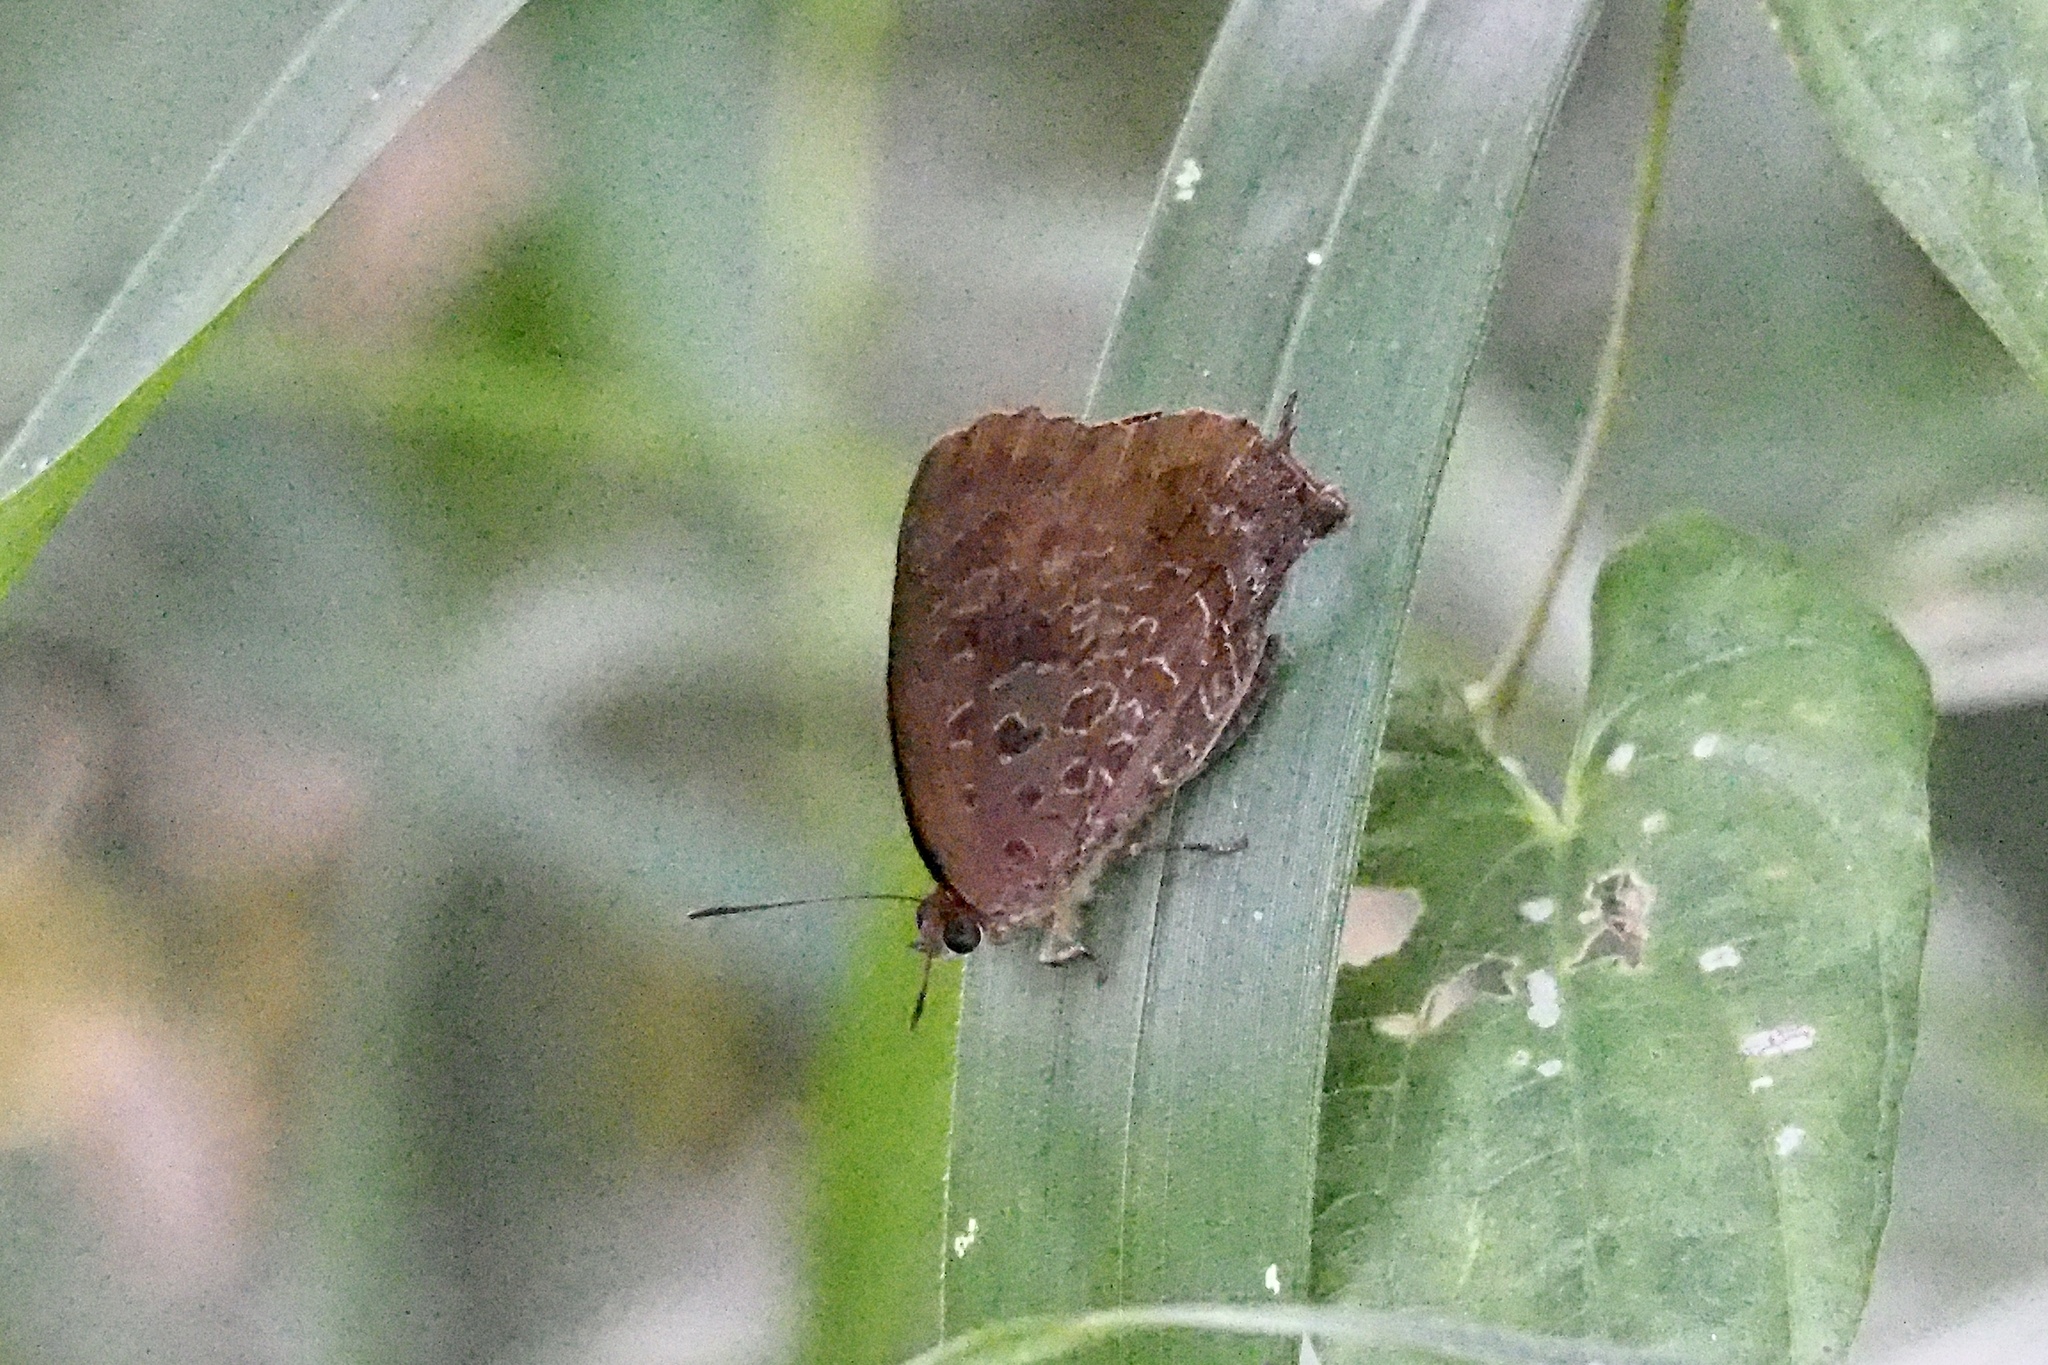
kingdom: Animalia
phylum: Arthropoda
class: Insecta
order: Lepidoptera
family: Lycaenidae
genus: Amblypodia
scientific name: Amblypodia turbata
